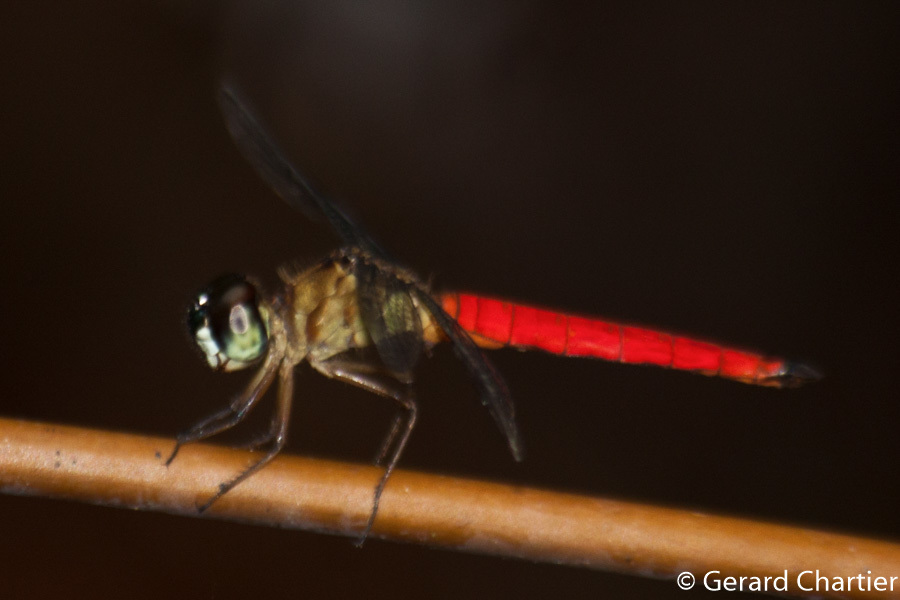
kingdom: Animalia
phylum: Arthropoda
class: Insecta
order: Odonata
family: Libellulidae
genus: Orchithemis
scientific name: Orchithemis pulcherrima
